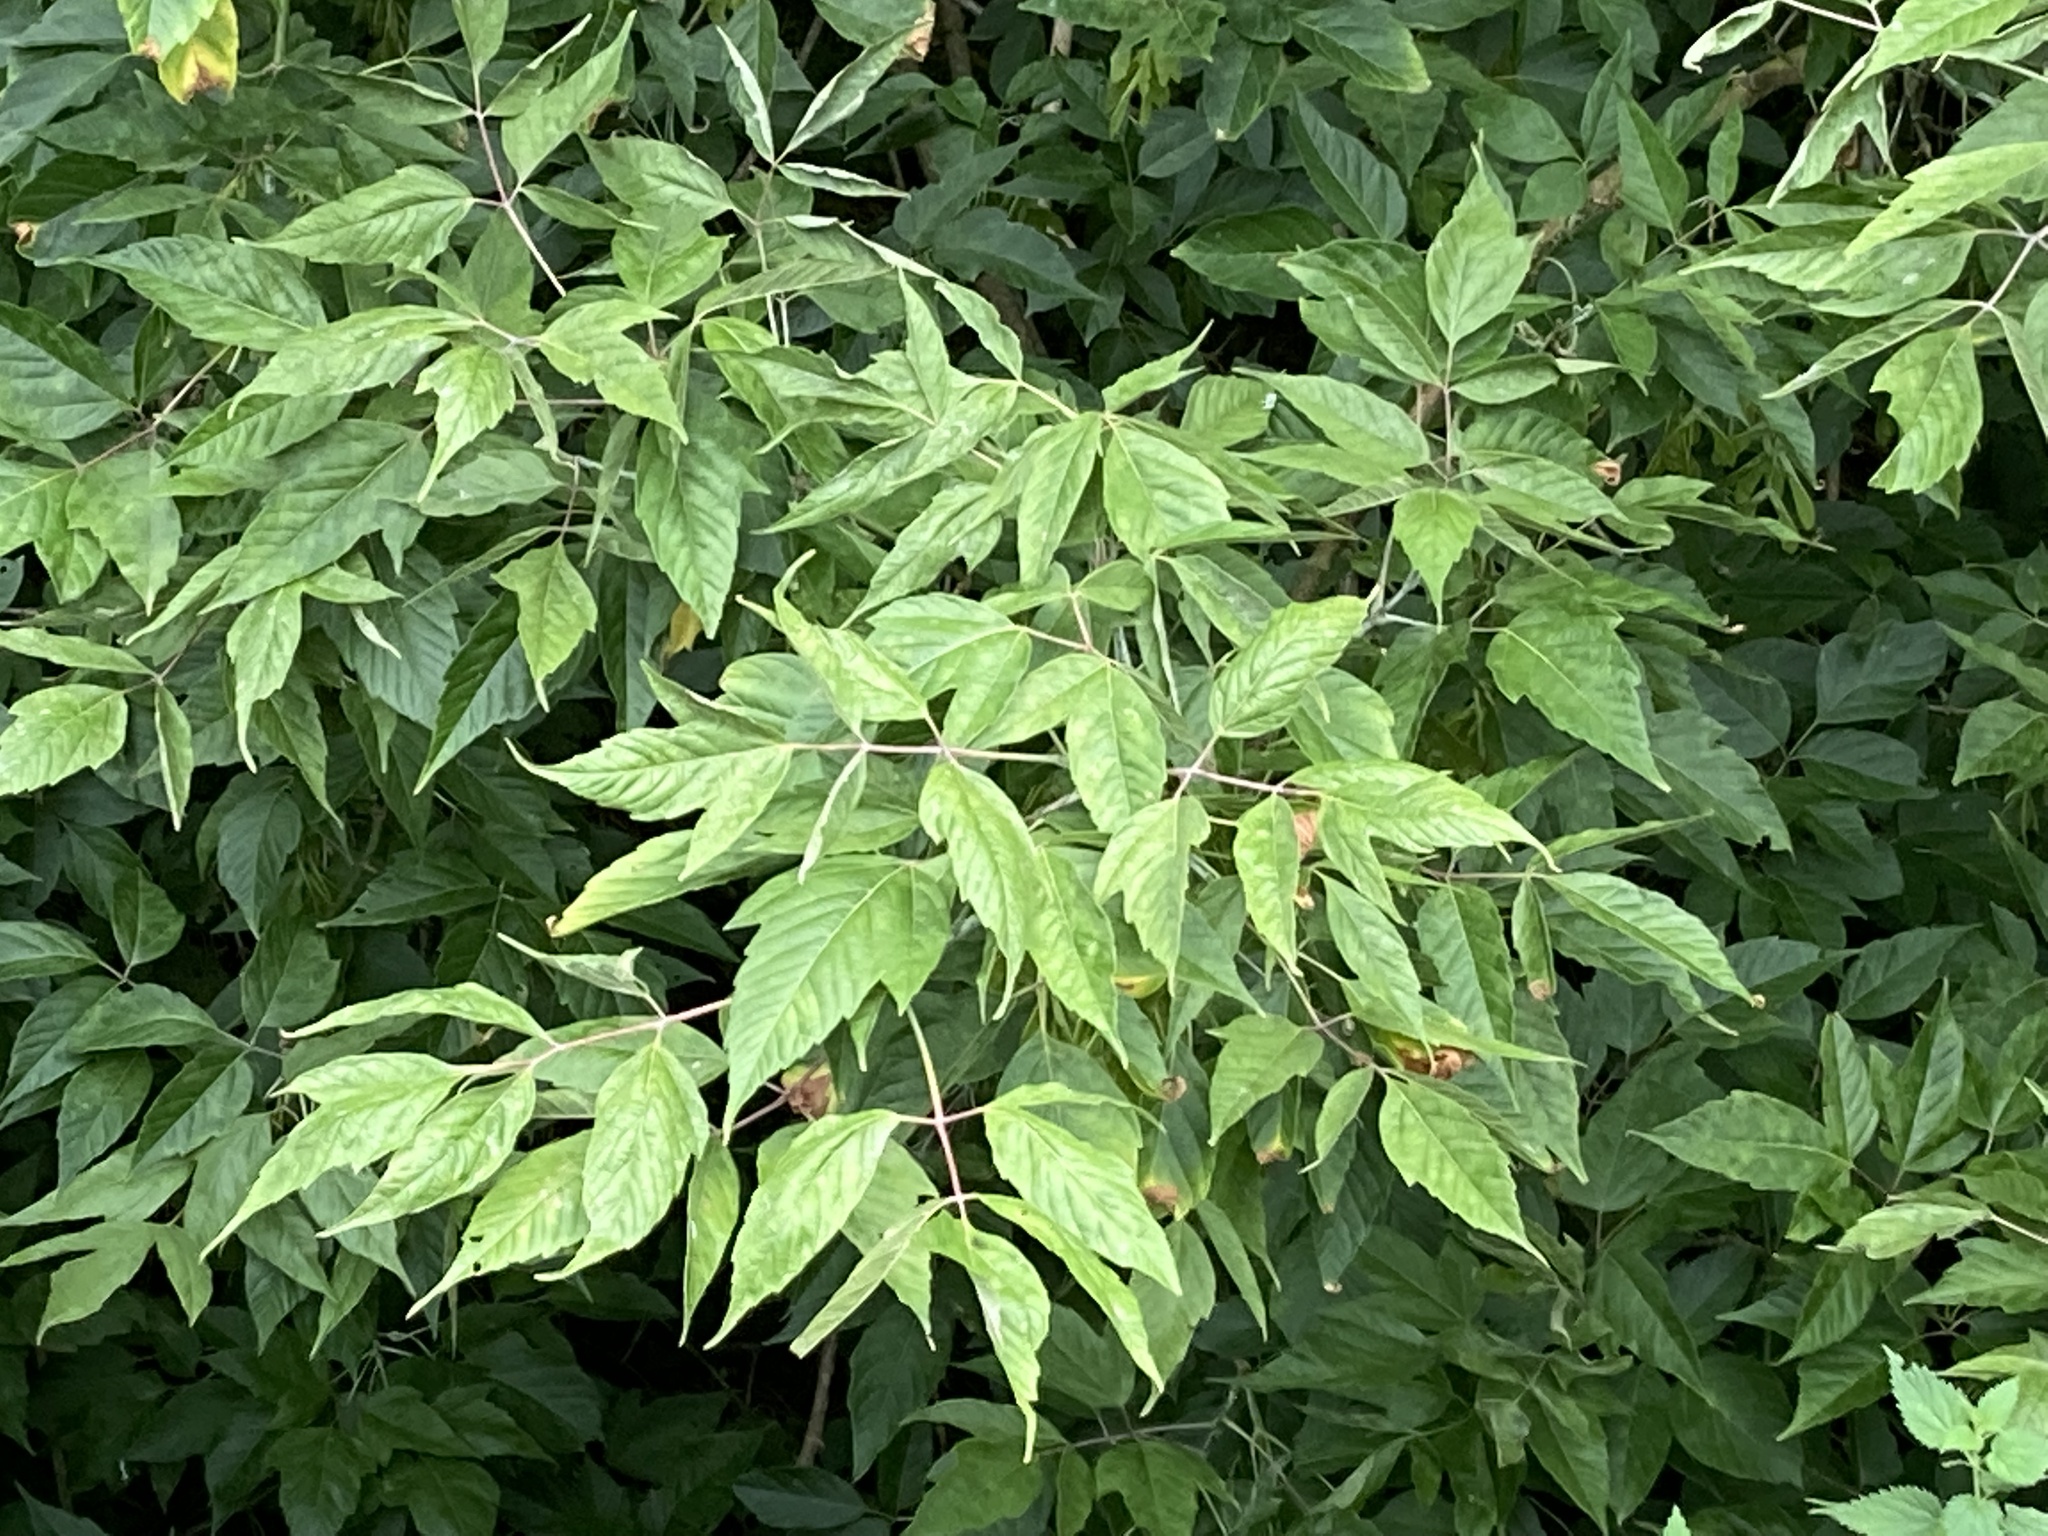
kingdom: Plantae
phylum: Tracheophyta
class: Magnoliopsida
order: Sapindales
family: Sapindaceae
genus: Acer
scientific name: Acer negundo
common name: Ashleaf maple
